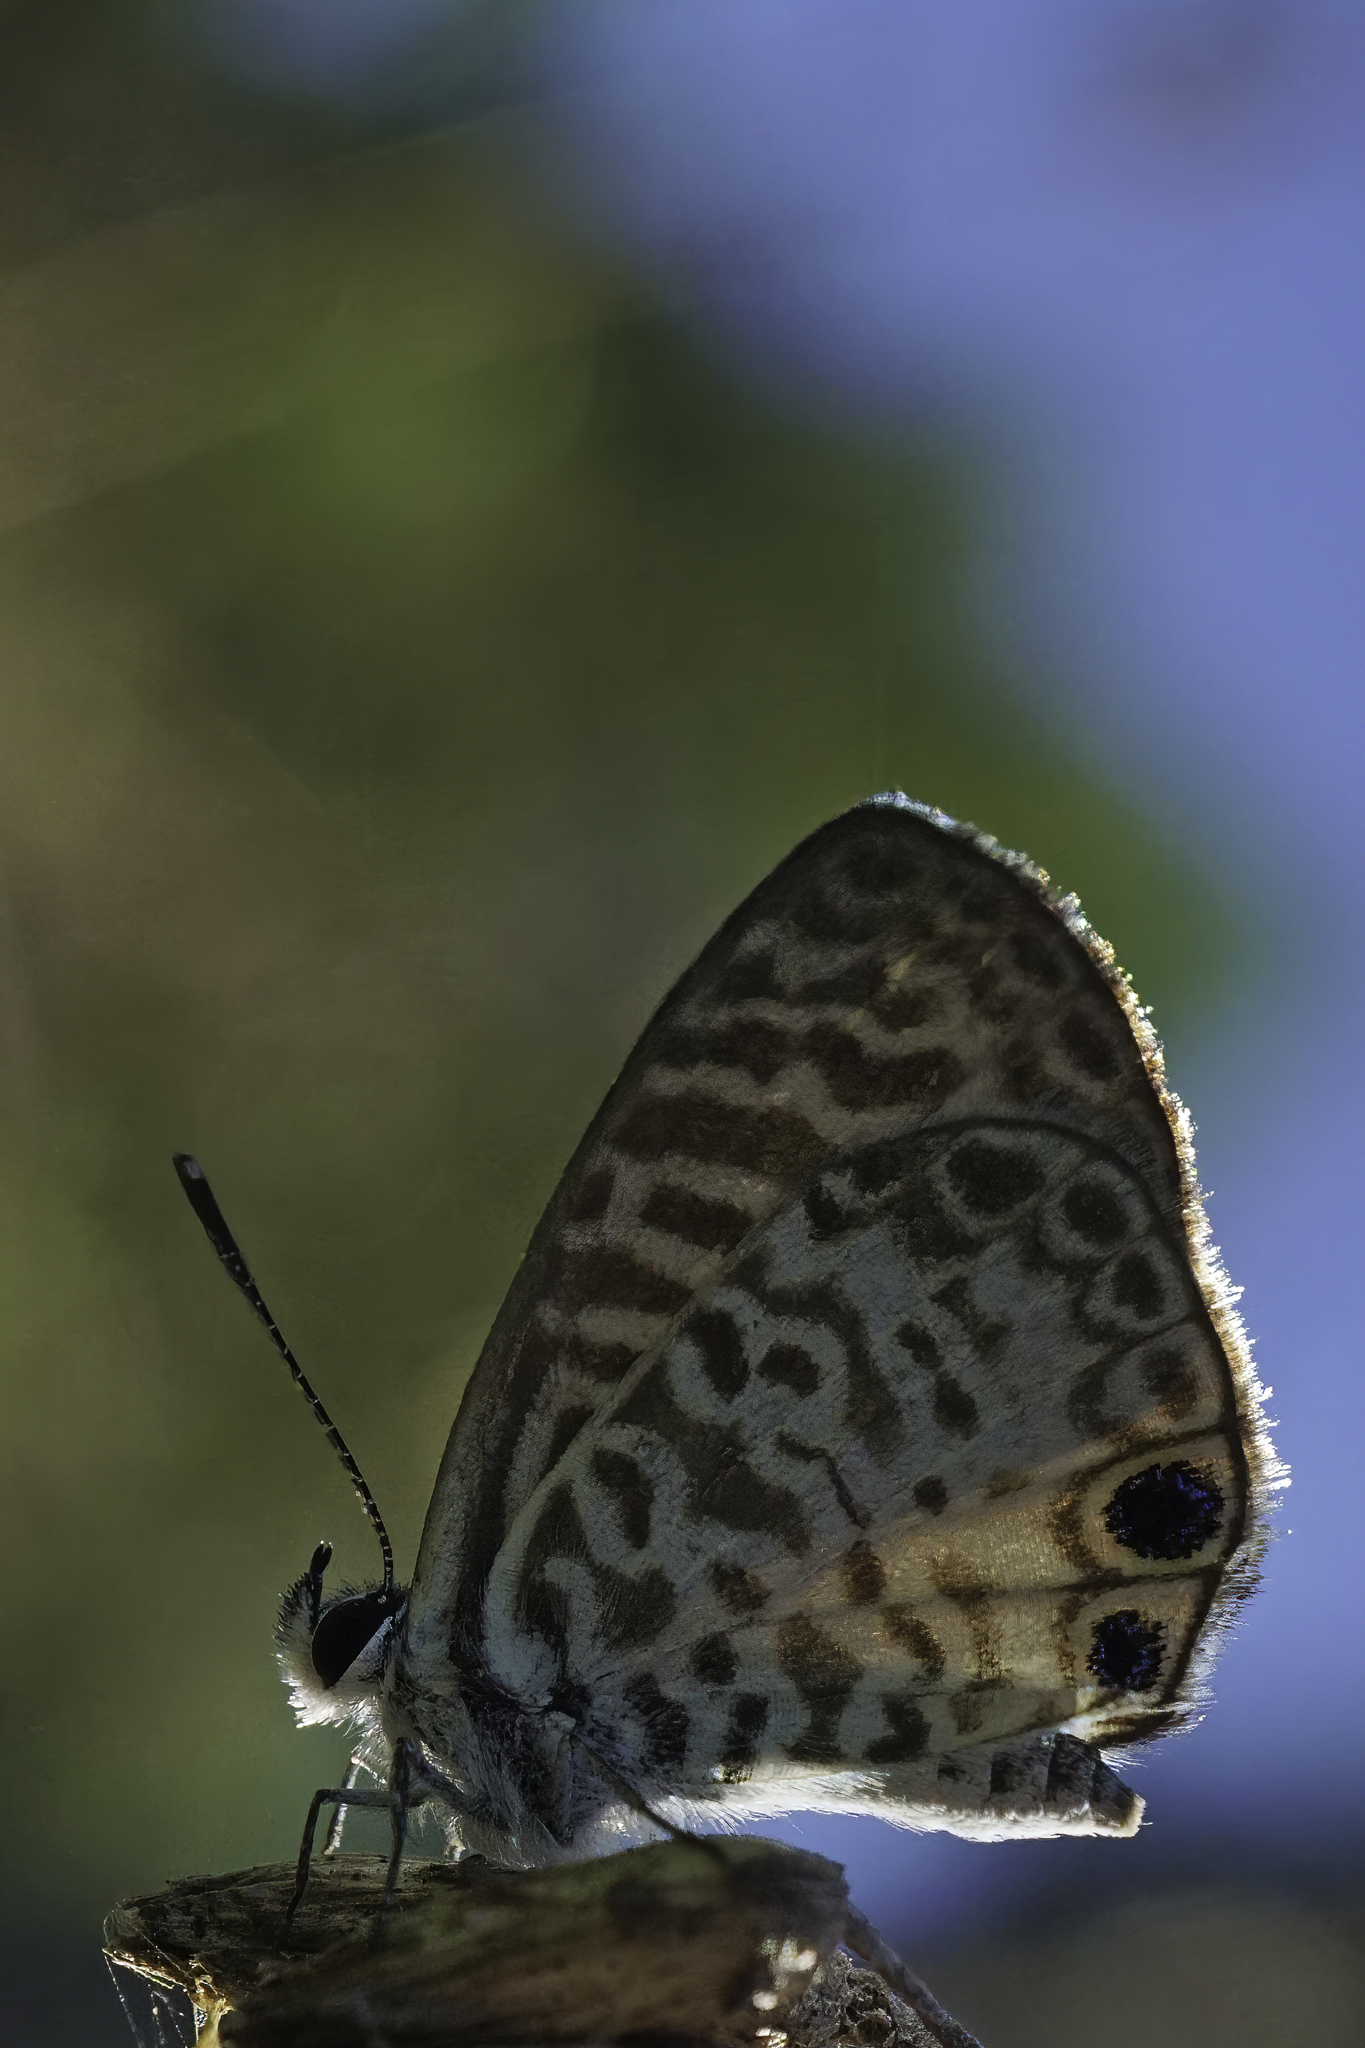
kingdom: Animalia
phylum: Arthropoda
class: Insecta
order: Lepidoptera
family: Lycaenidae
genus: Leptotes
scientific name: Leptotes cassius
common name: Cassius blue
